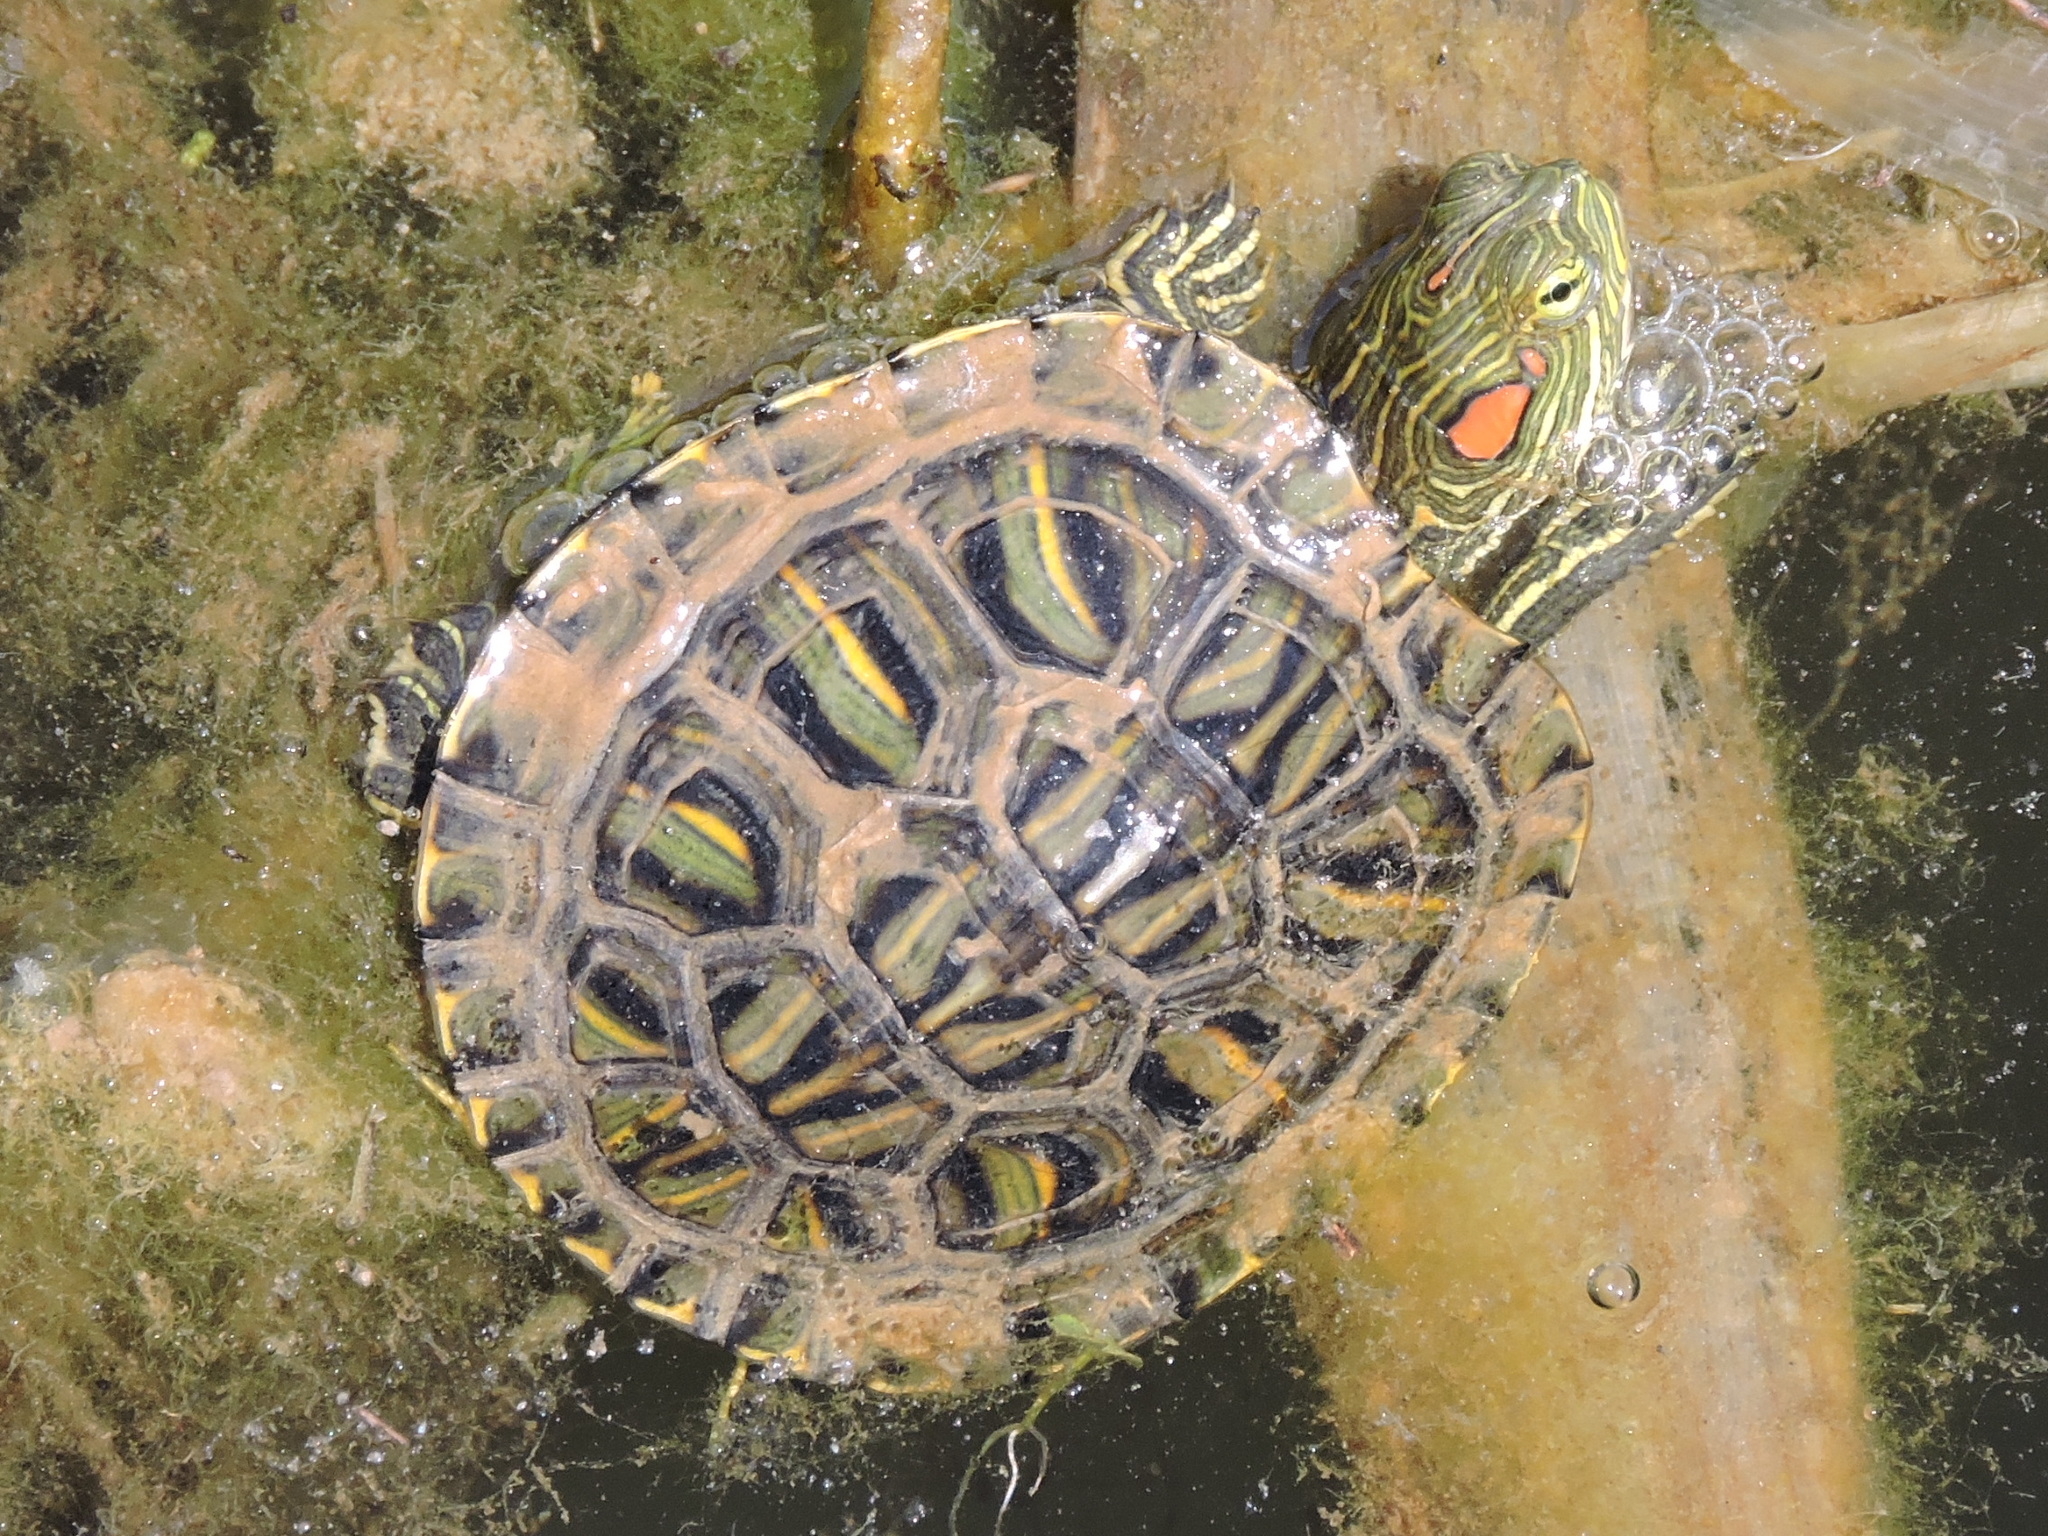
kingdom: Animalia
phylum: Chordata
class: Testudines
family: Emydidae
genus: Trachemys
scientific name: Trachemys scripta
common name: Slider
